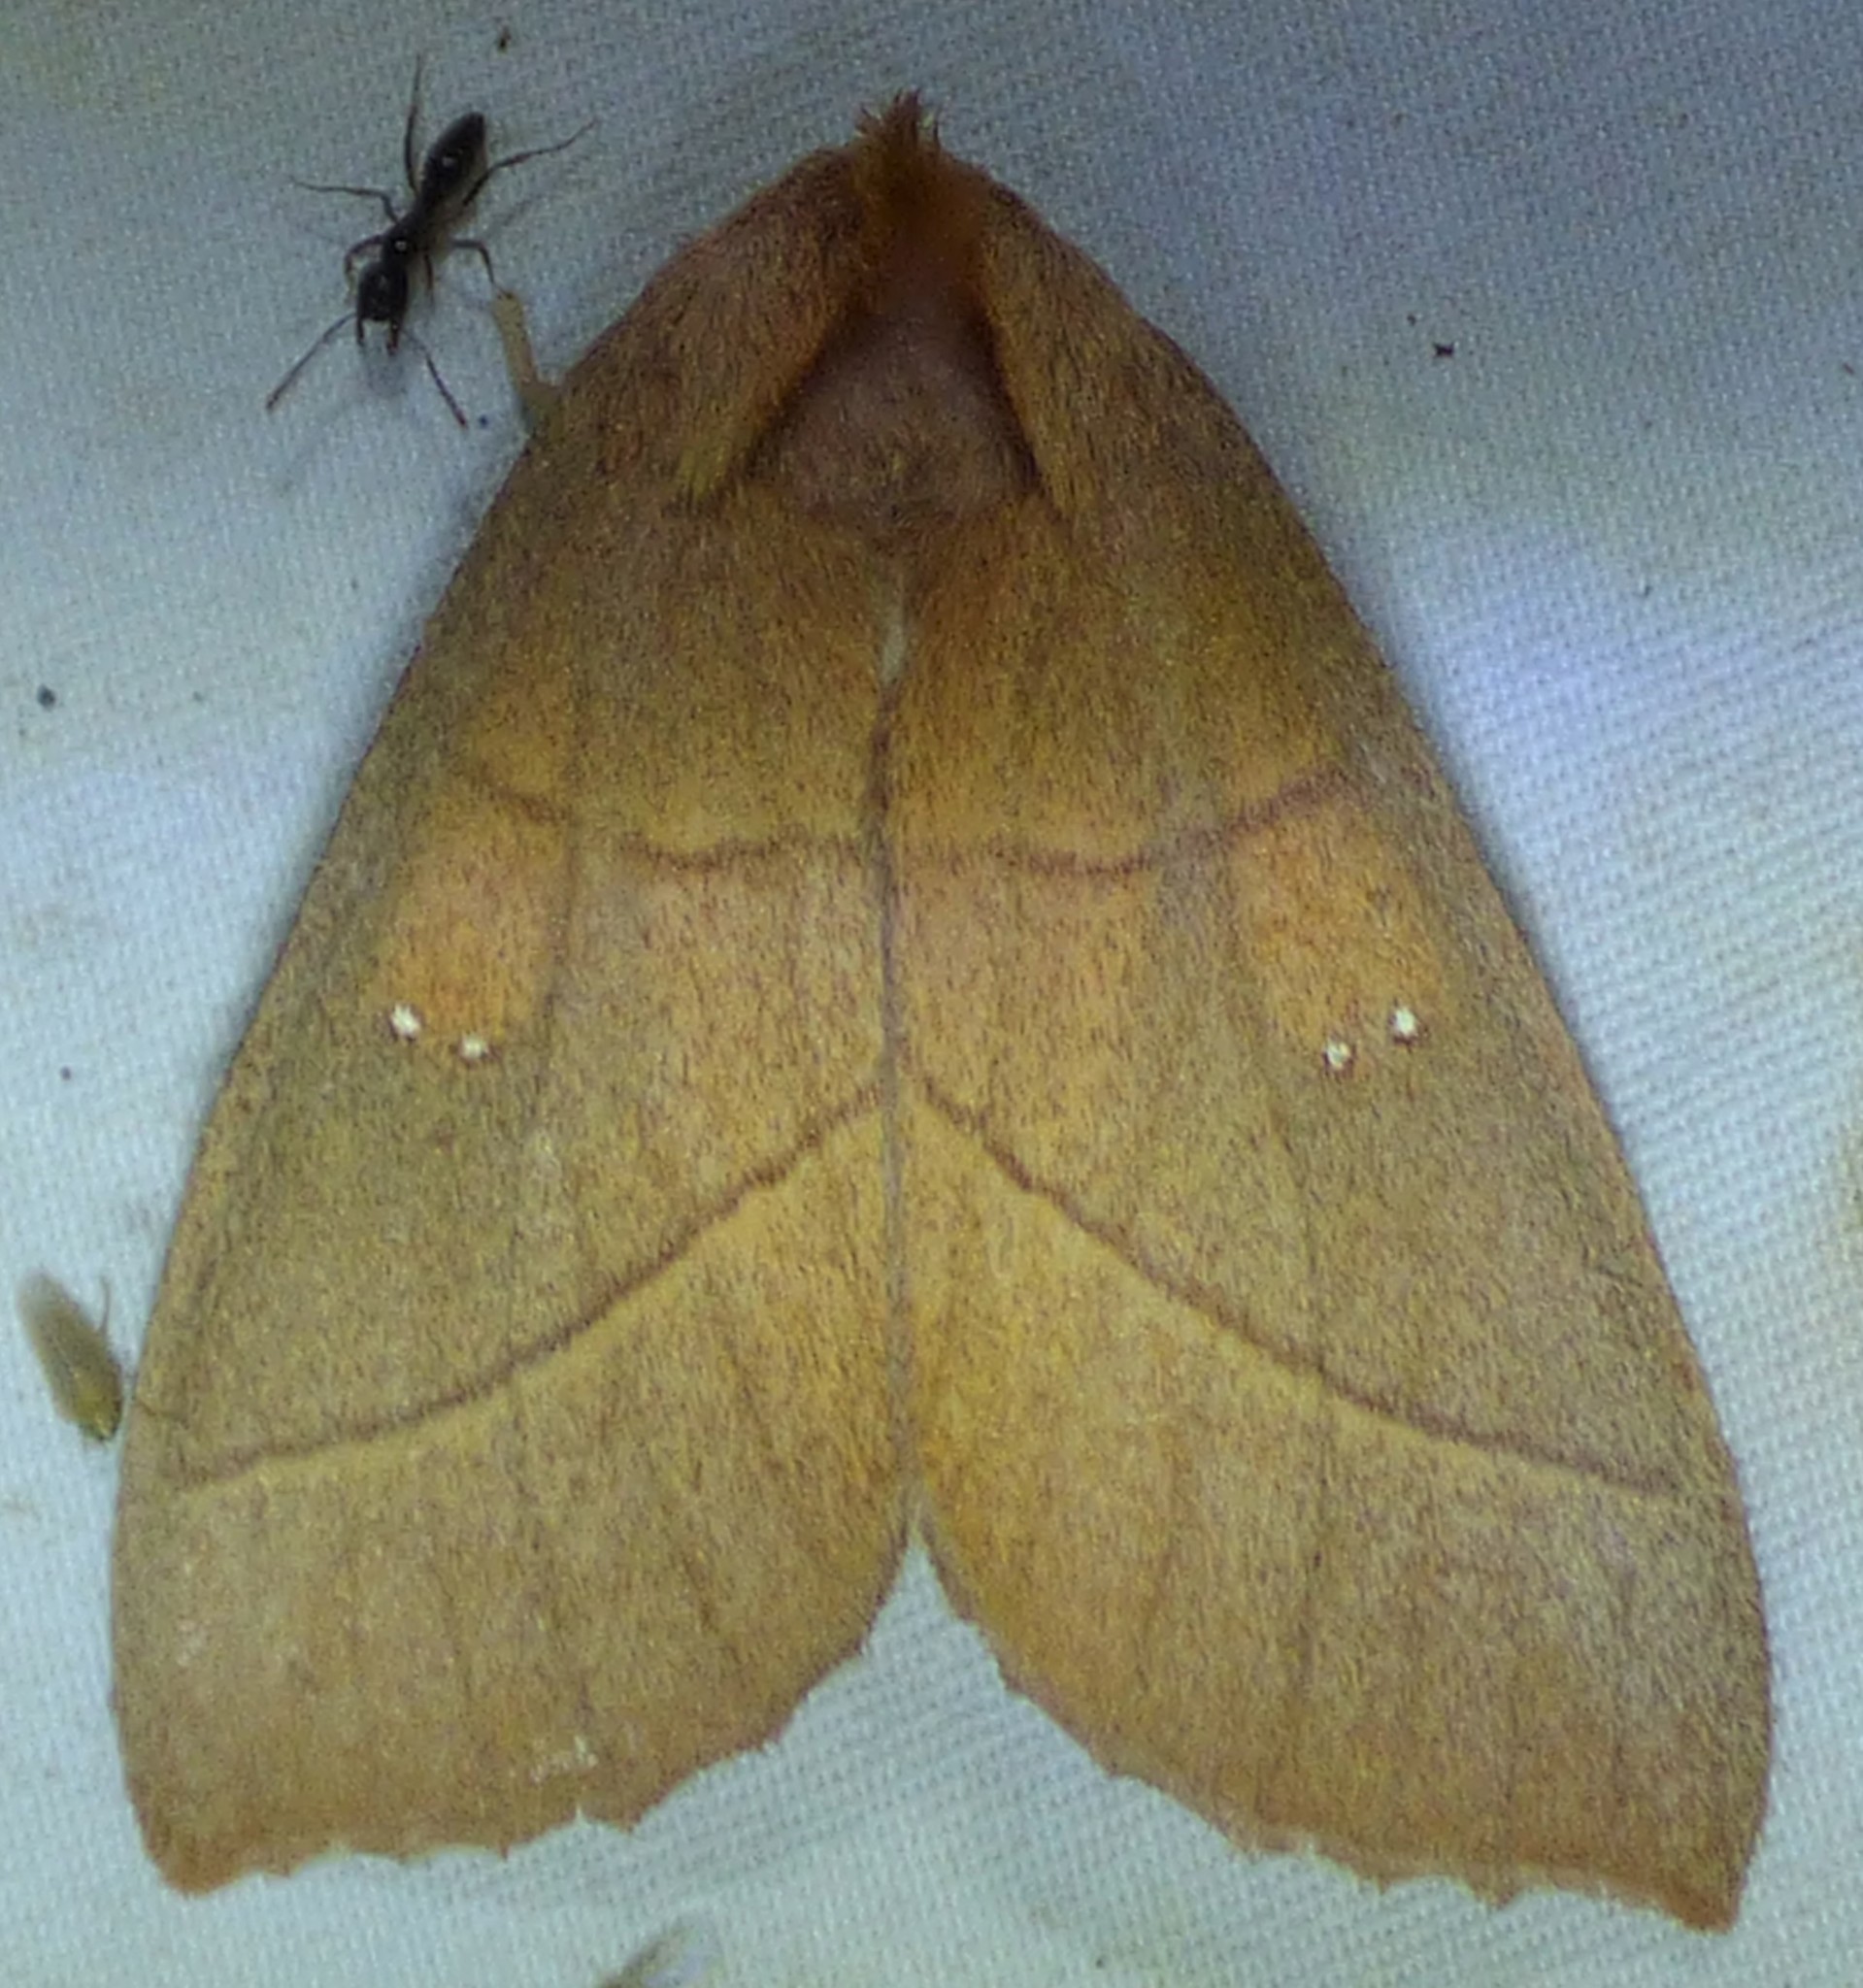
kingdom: Animalia
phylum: Arthropoda
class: Insecta
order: Lepidoptera
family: Notodontidae
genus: Nadata
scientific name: Nadata gibbosa
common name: White-dotted prominent
